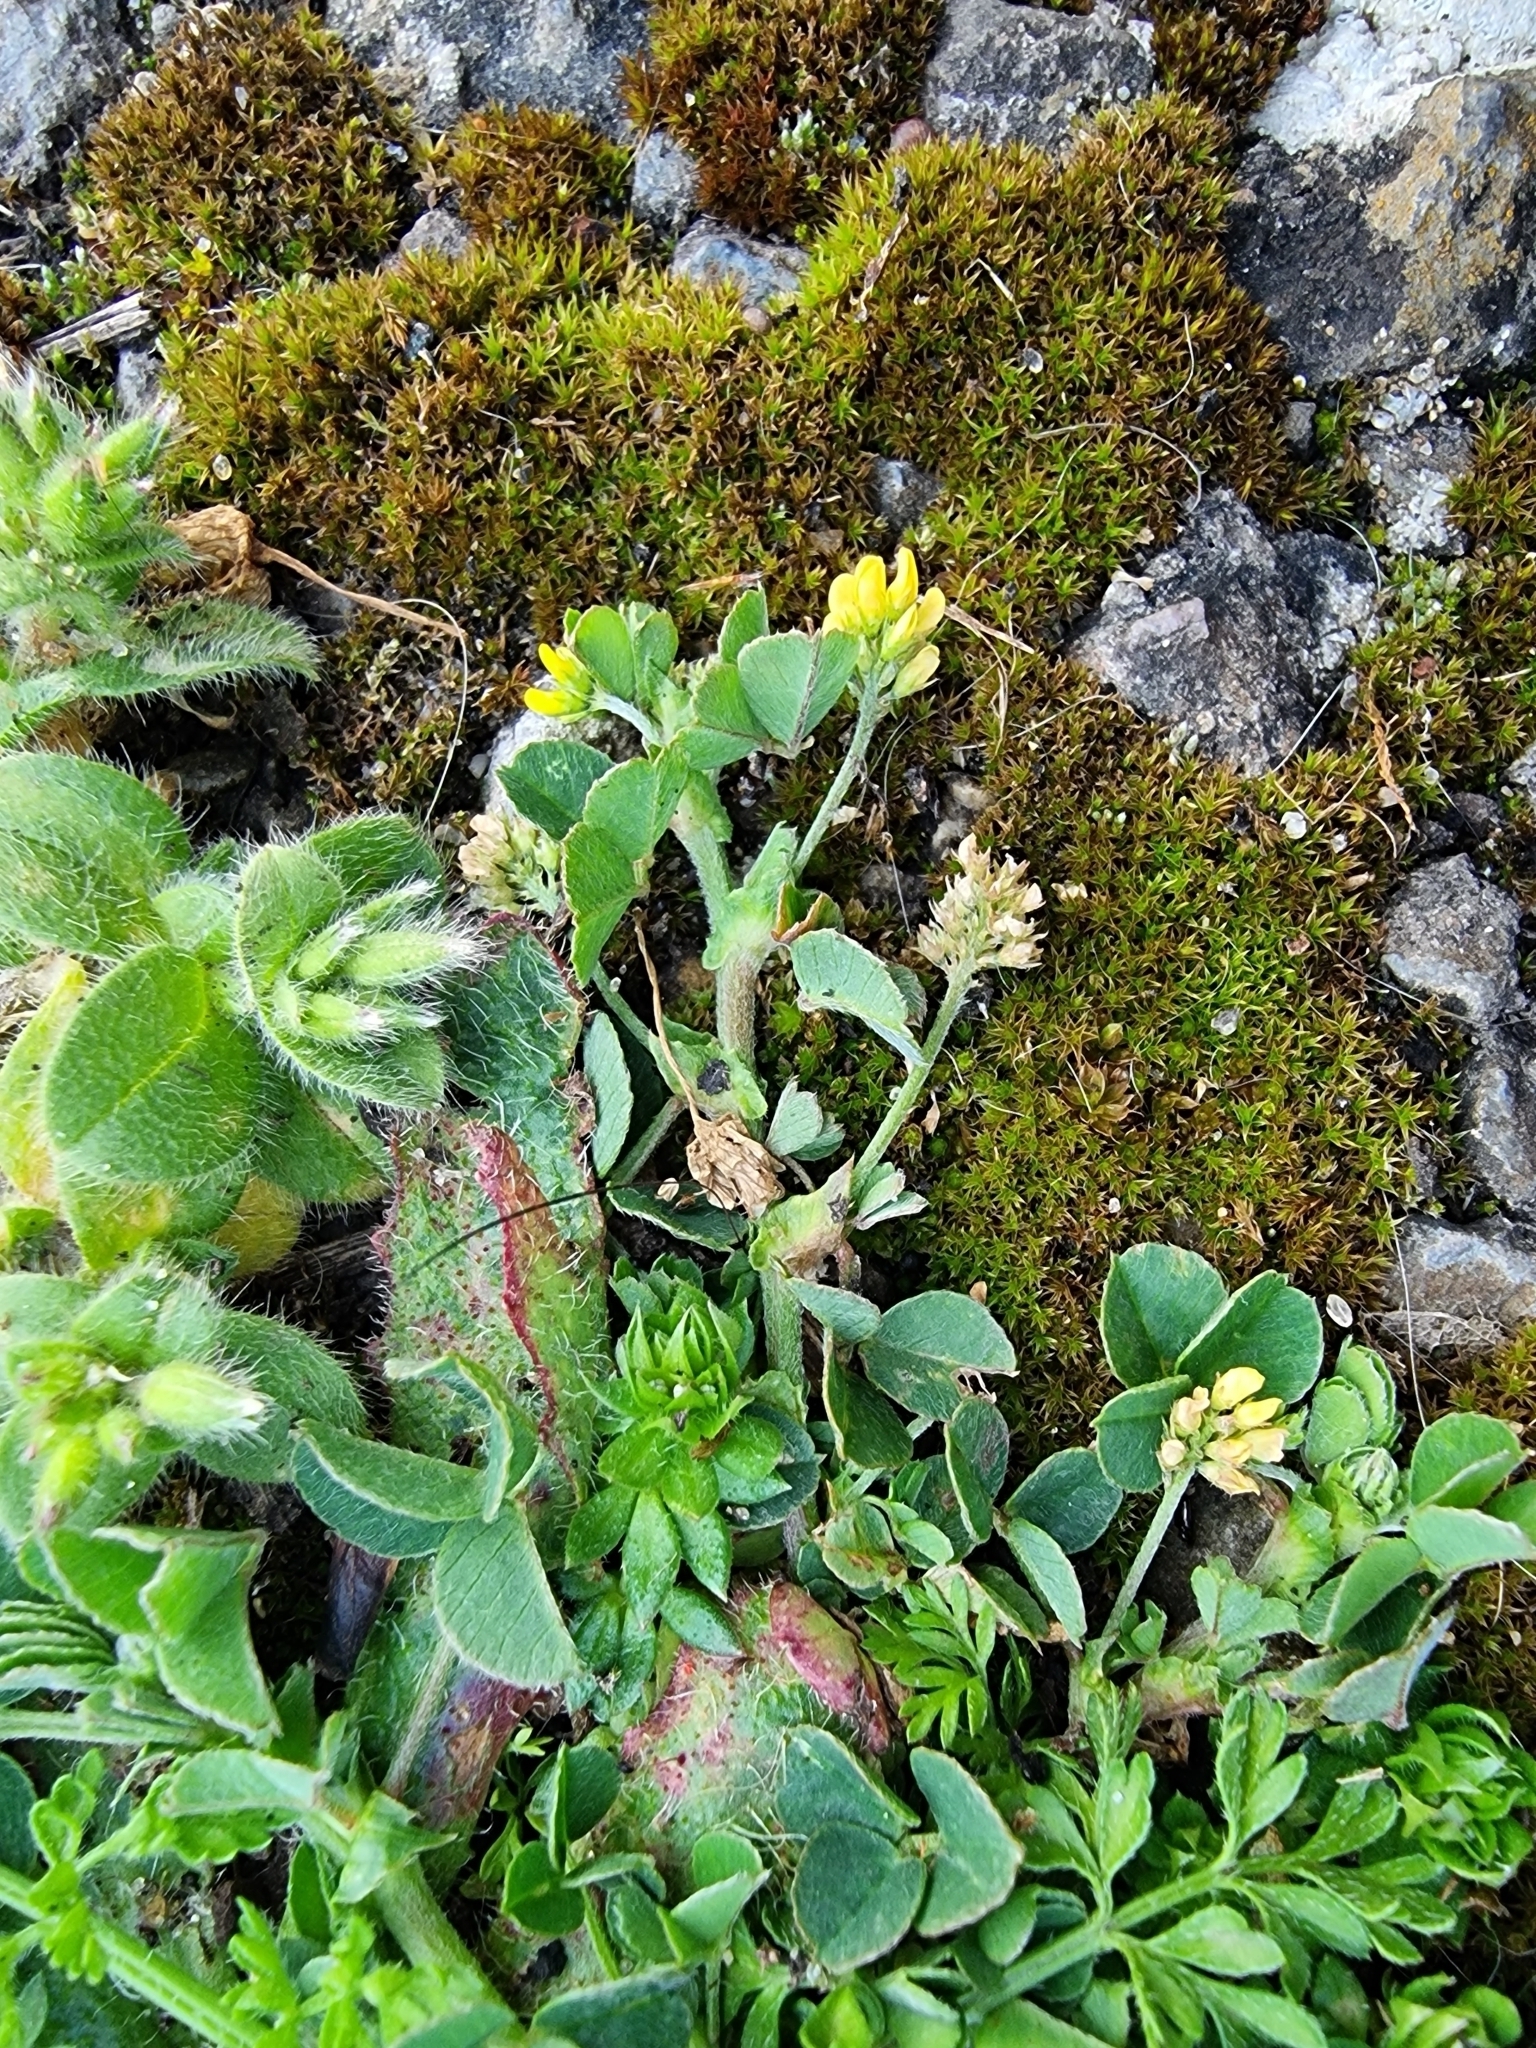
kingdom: Plantae
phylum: Tracheophyta
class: Magnoliopsida
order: Fabales
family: Fabaceae
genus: Medicago
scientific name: Medicago lupulina
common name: Black medick
